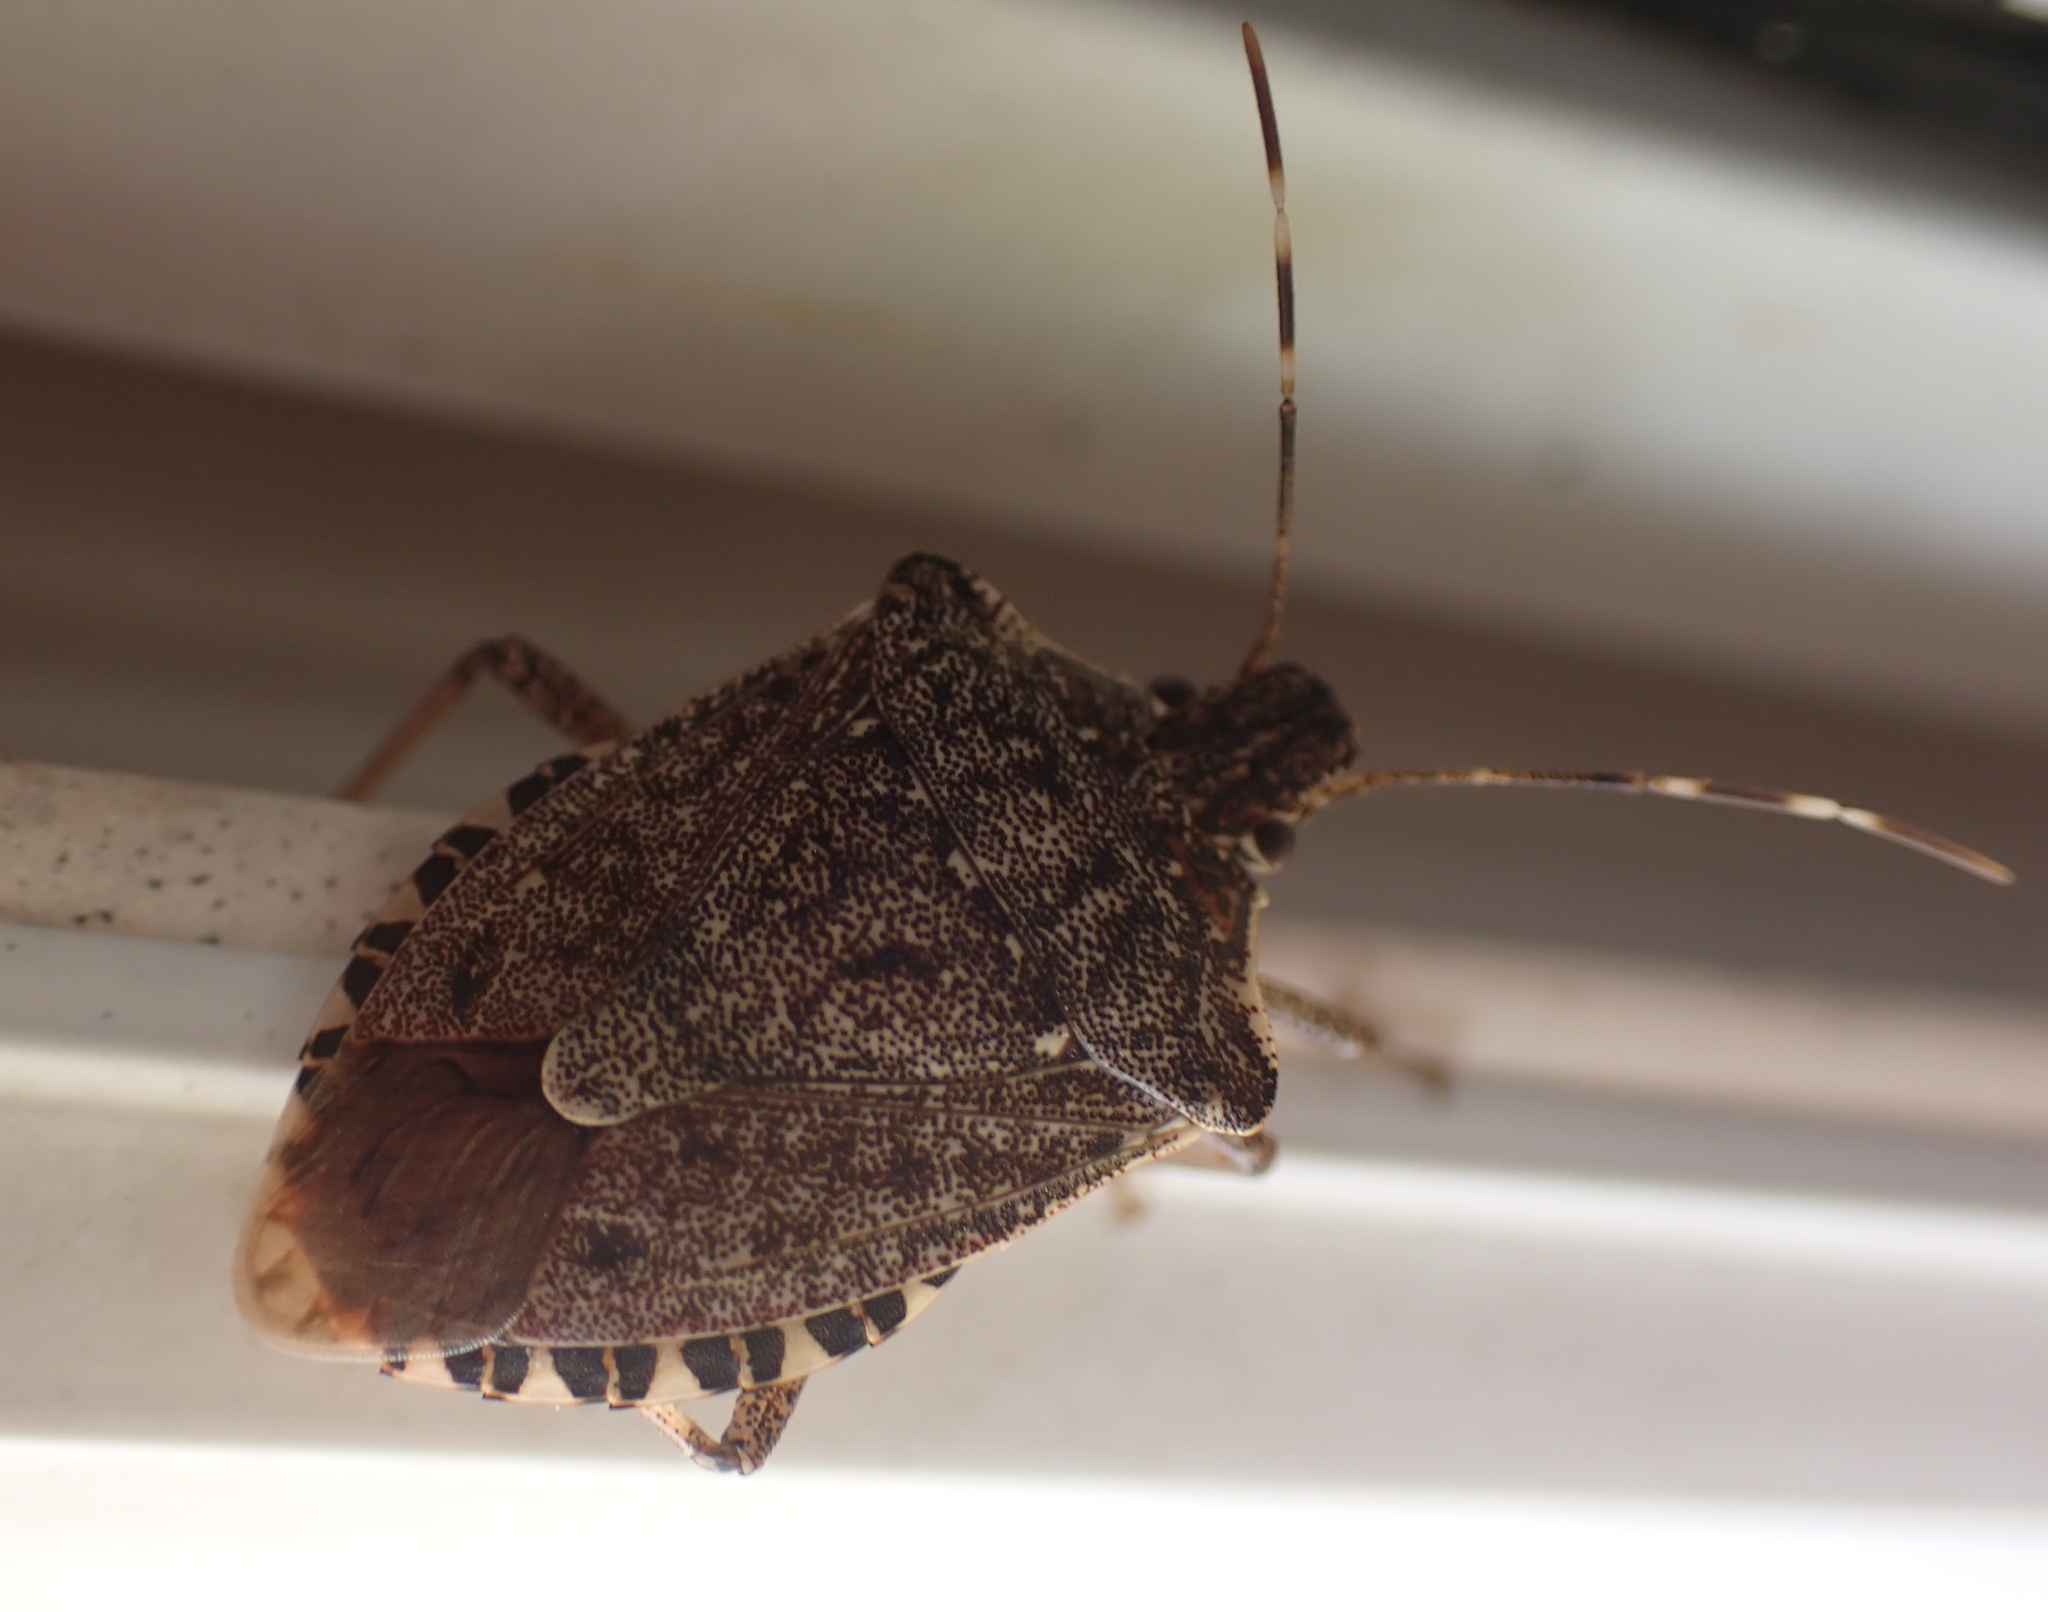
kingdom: Animalia
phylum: Arthropoda
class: Insecta
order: Hemiptera
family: Pentatomidae
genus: Halyomorpha
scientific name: Halyomorpha halys
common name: Brown marmorated stink bug
